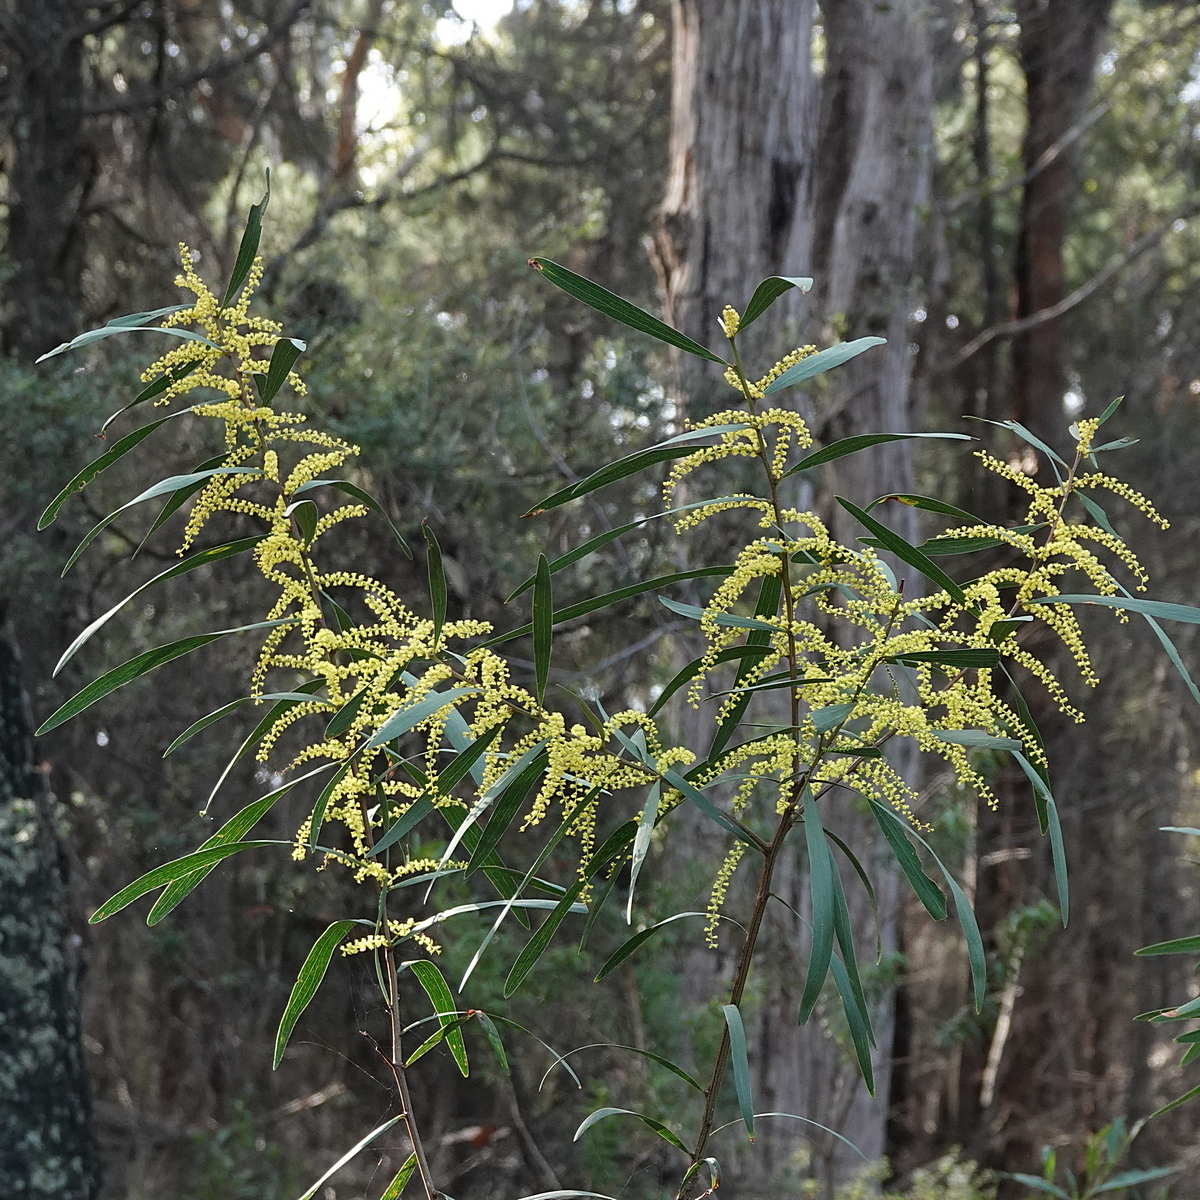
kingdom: Plantae
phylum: Tracheophyta
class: Magnoliopsida
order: Fabales
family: Fabaceae
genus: Acacia
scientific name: Acacia longifolia
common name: Sydney golden wattle
